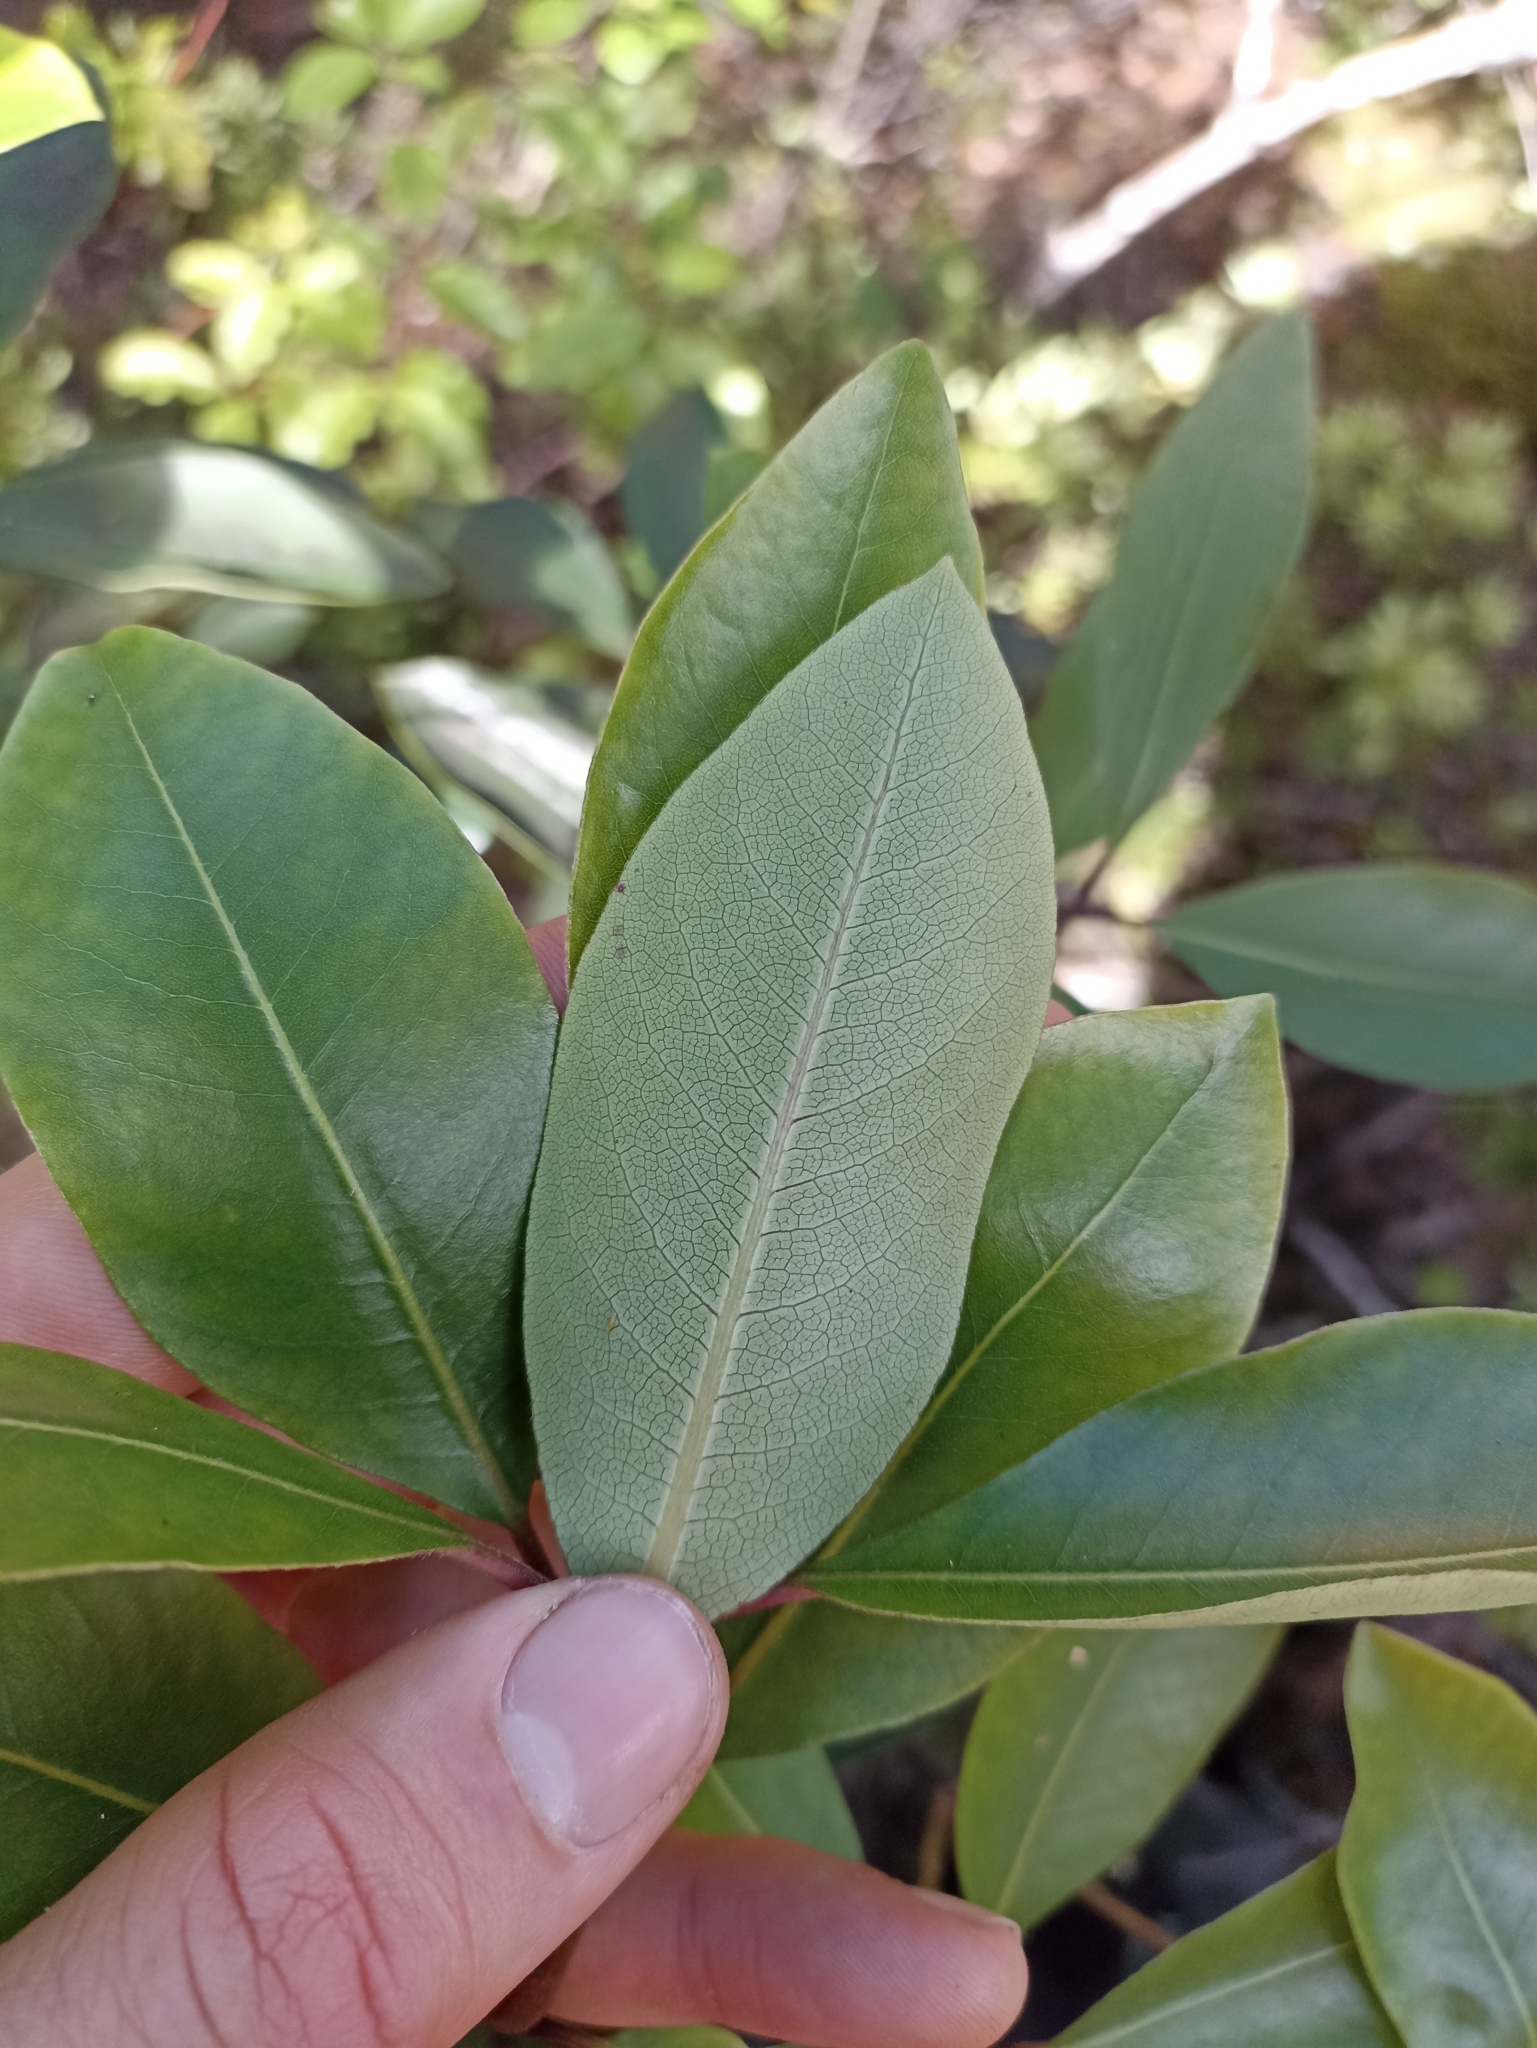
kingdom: Plantae
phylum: Tracheophyta
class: Magnoliopsida
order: Apiales
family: Pittosporaceae
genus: Pittosporum
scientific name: Pittosporum umbellatum
